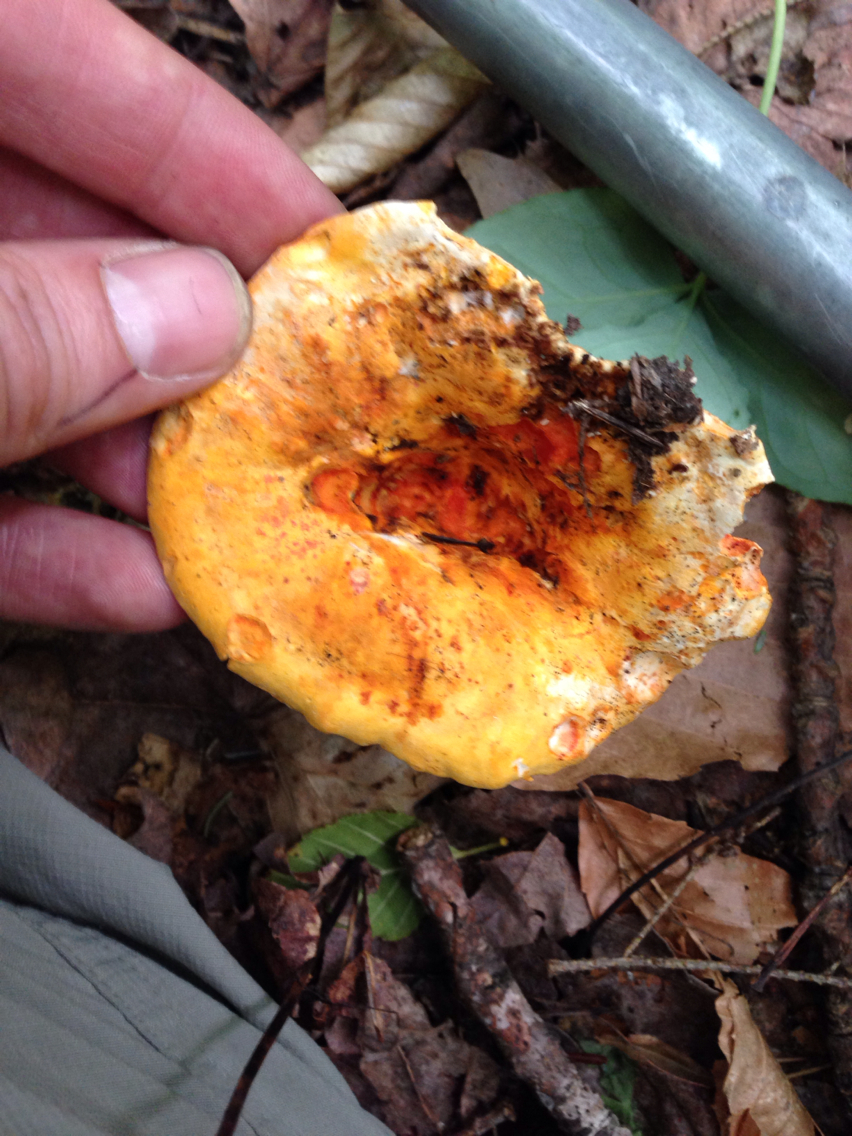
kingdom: Fungi
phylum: Ascomycota
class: Sordariomycetes
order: Hypocreales
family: Hypocreaceae
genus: Hypomyces
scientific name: Hypomyces lactifluorum
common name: Lobster mushroom
